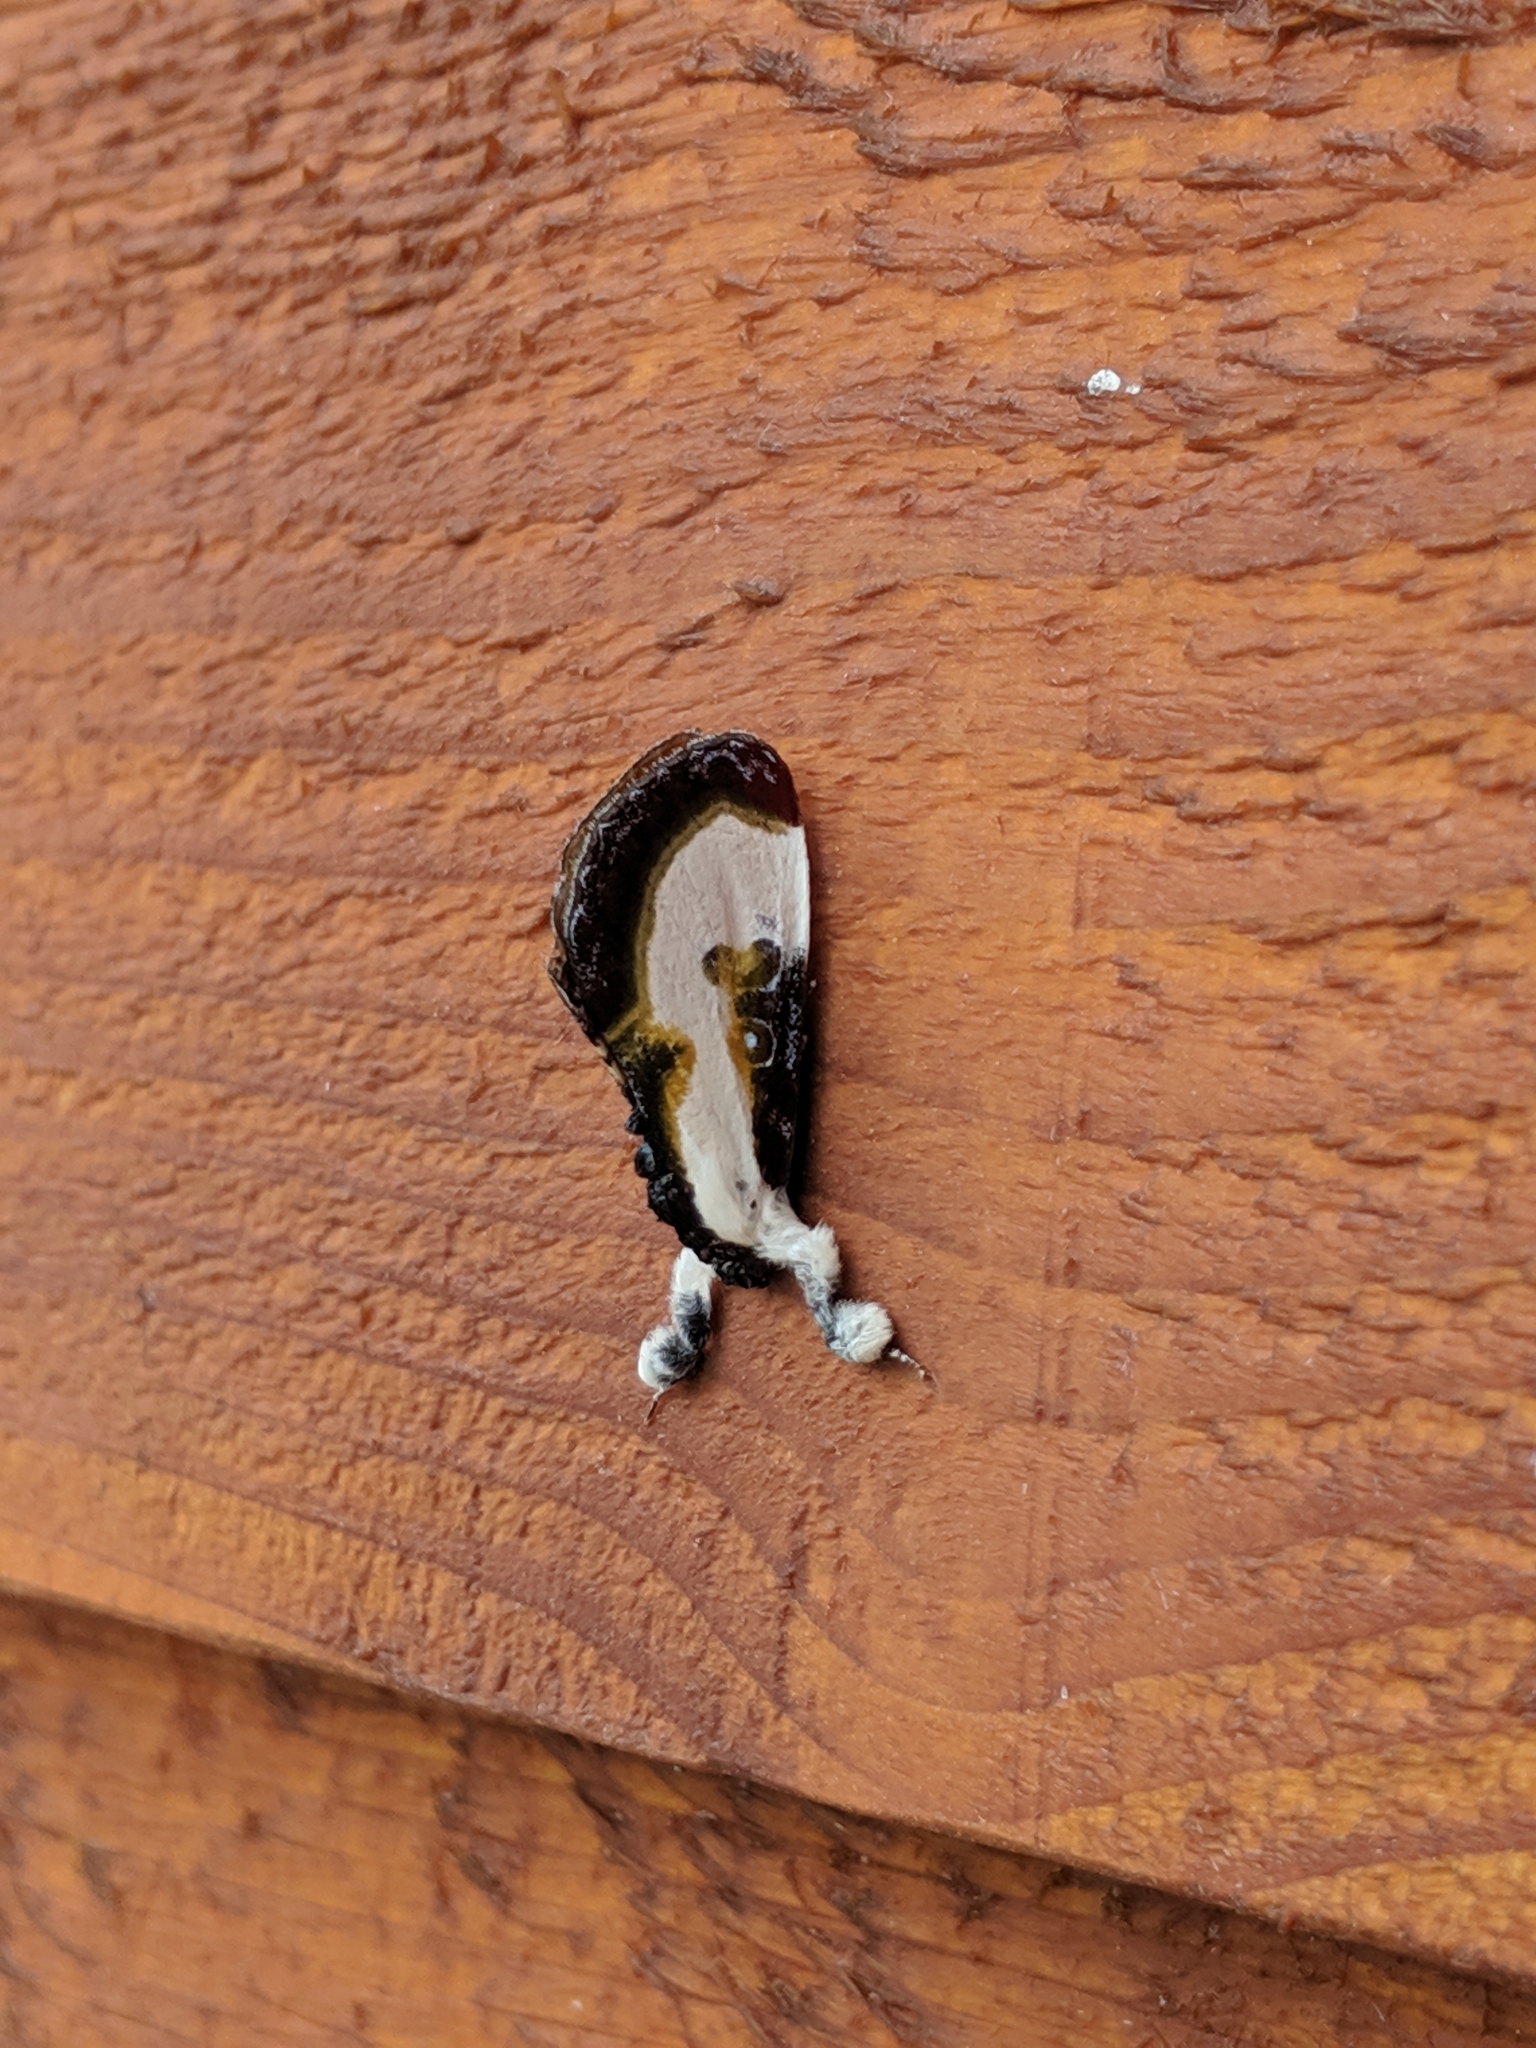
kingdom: Animalia
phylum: Arthropoda
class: Insecta
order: Lepidoptera
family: Noctuidae
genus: Eudryas
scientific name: Eudryas grata
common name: Beautiful wood-nymph
